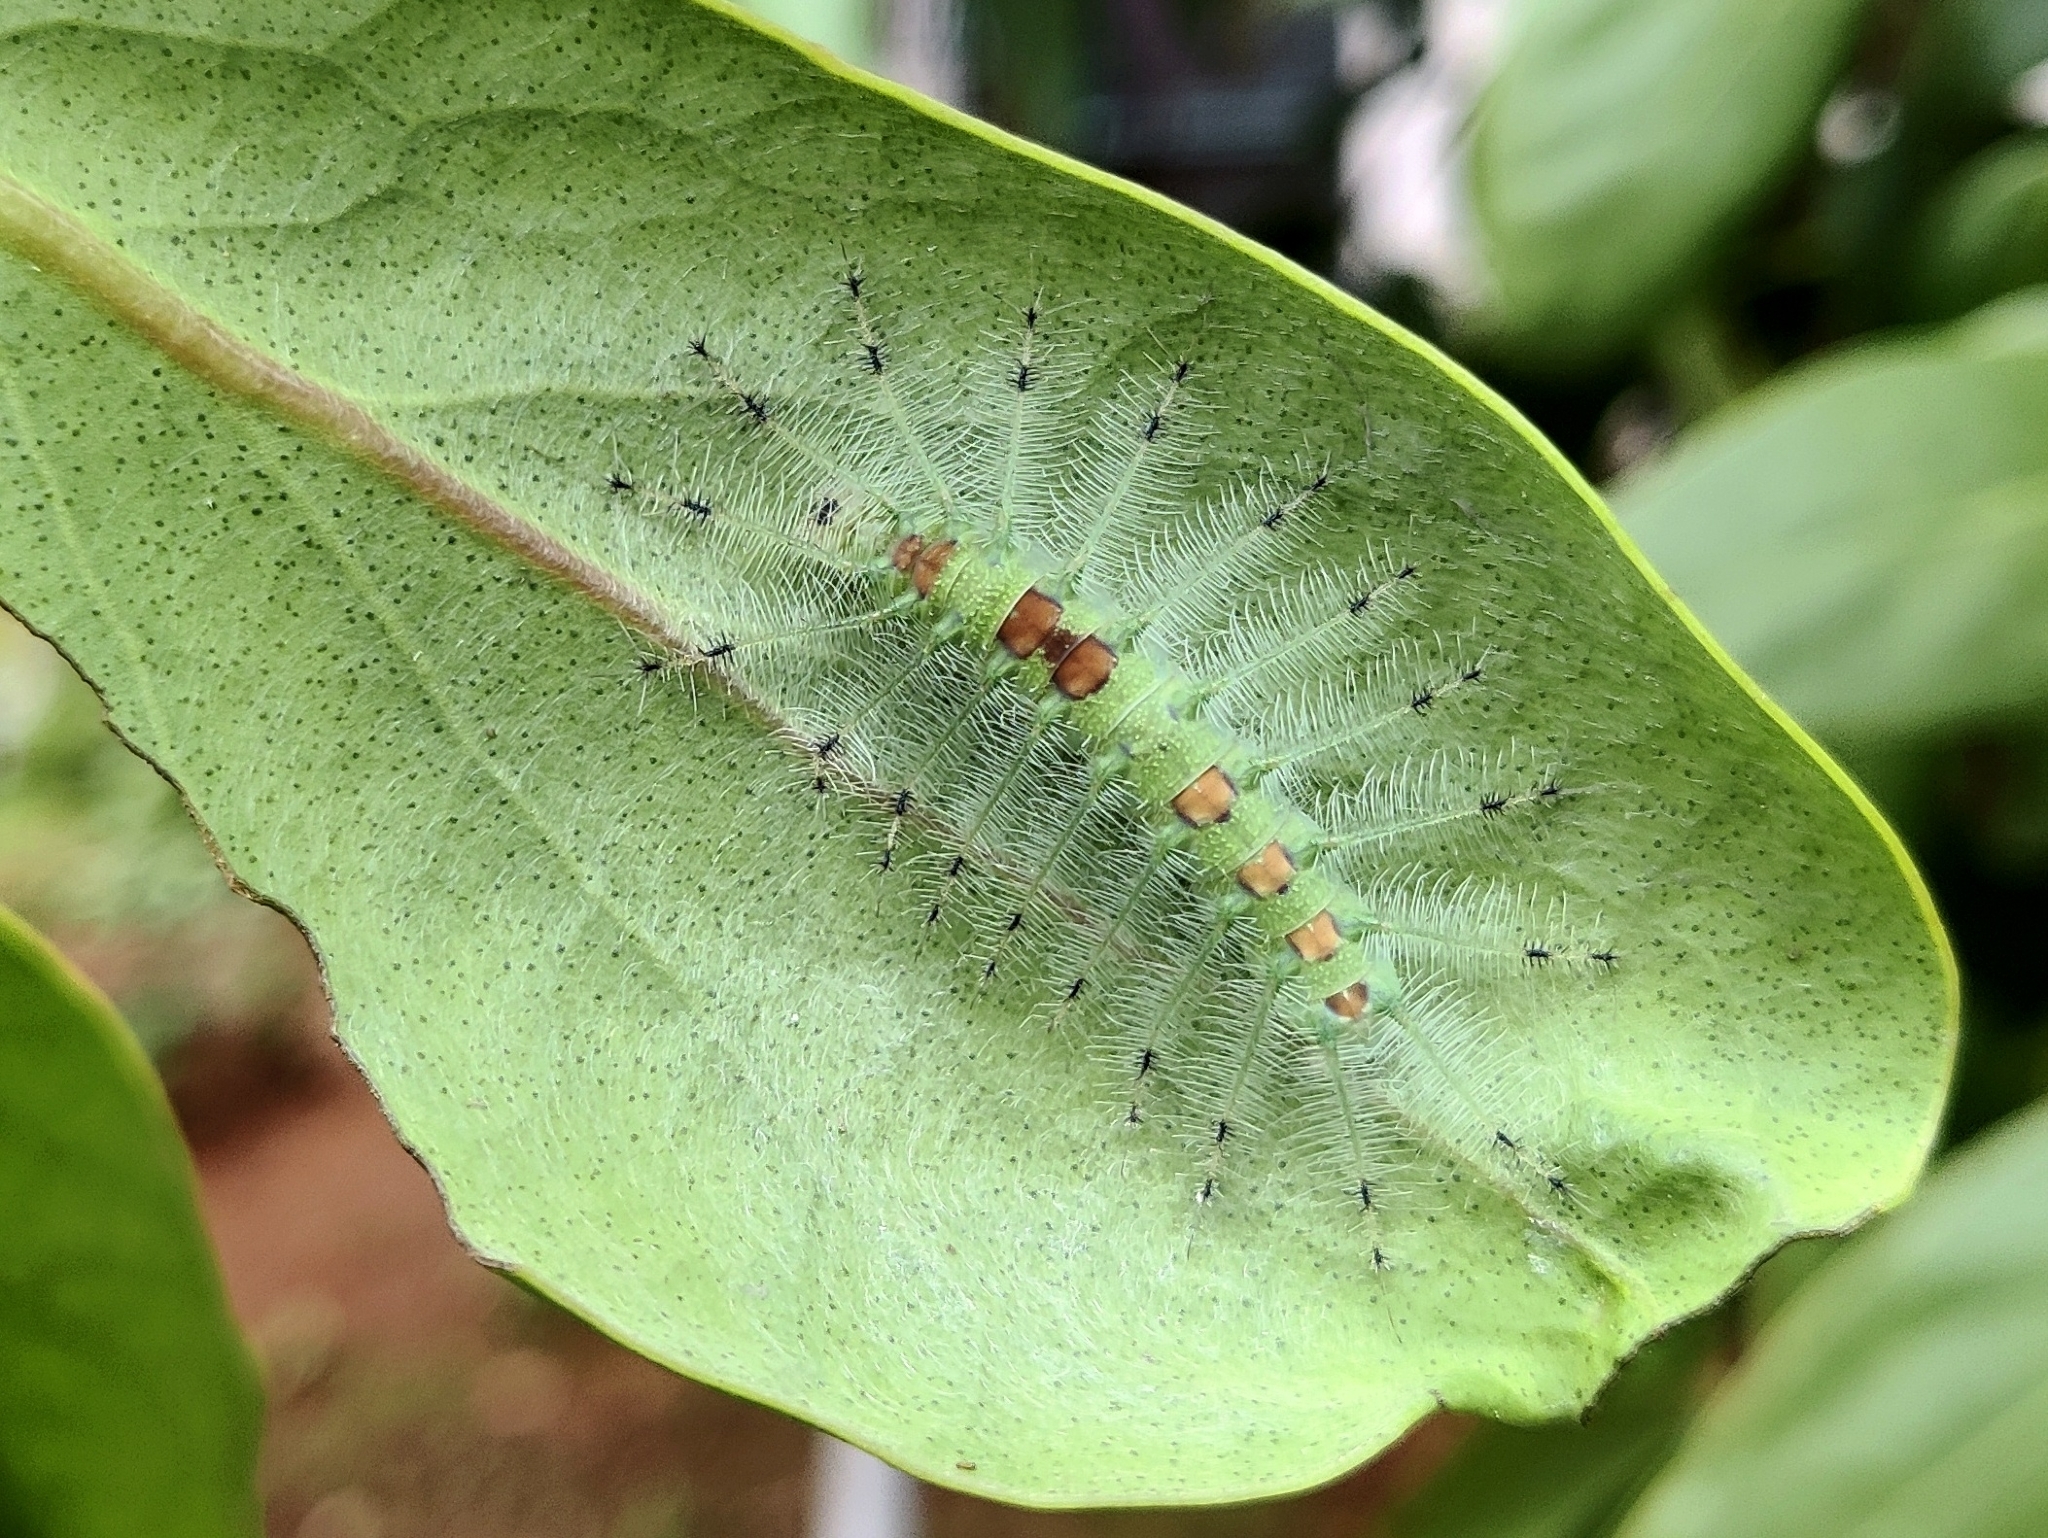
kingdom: Animalia
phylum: Arthropoda
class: Insecta
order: Lepidoptera
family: Nymphalidae
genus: Euthalia
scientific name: Euthalia lubentina
